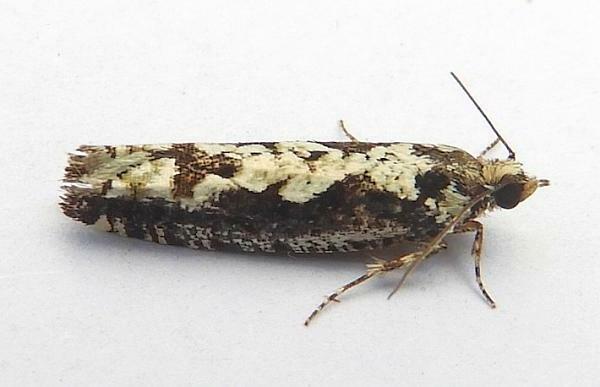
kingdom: Animalia
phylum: Arthropoda
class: Insecta
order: Lepidoptera
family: Tortricidae
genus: Chimoptesis
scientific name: Chimoptesis pennsylvaniana
